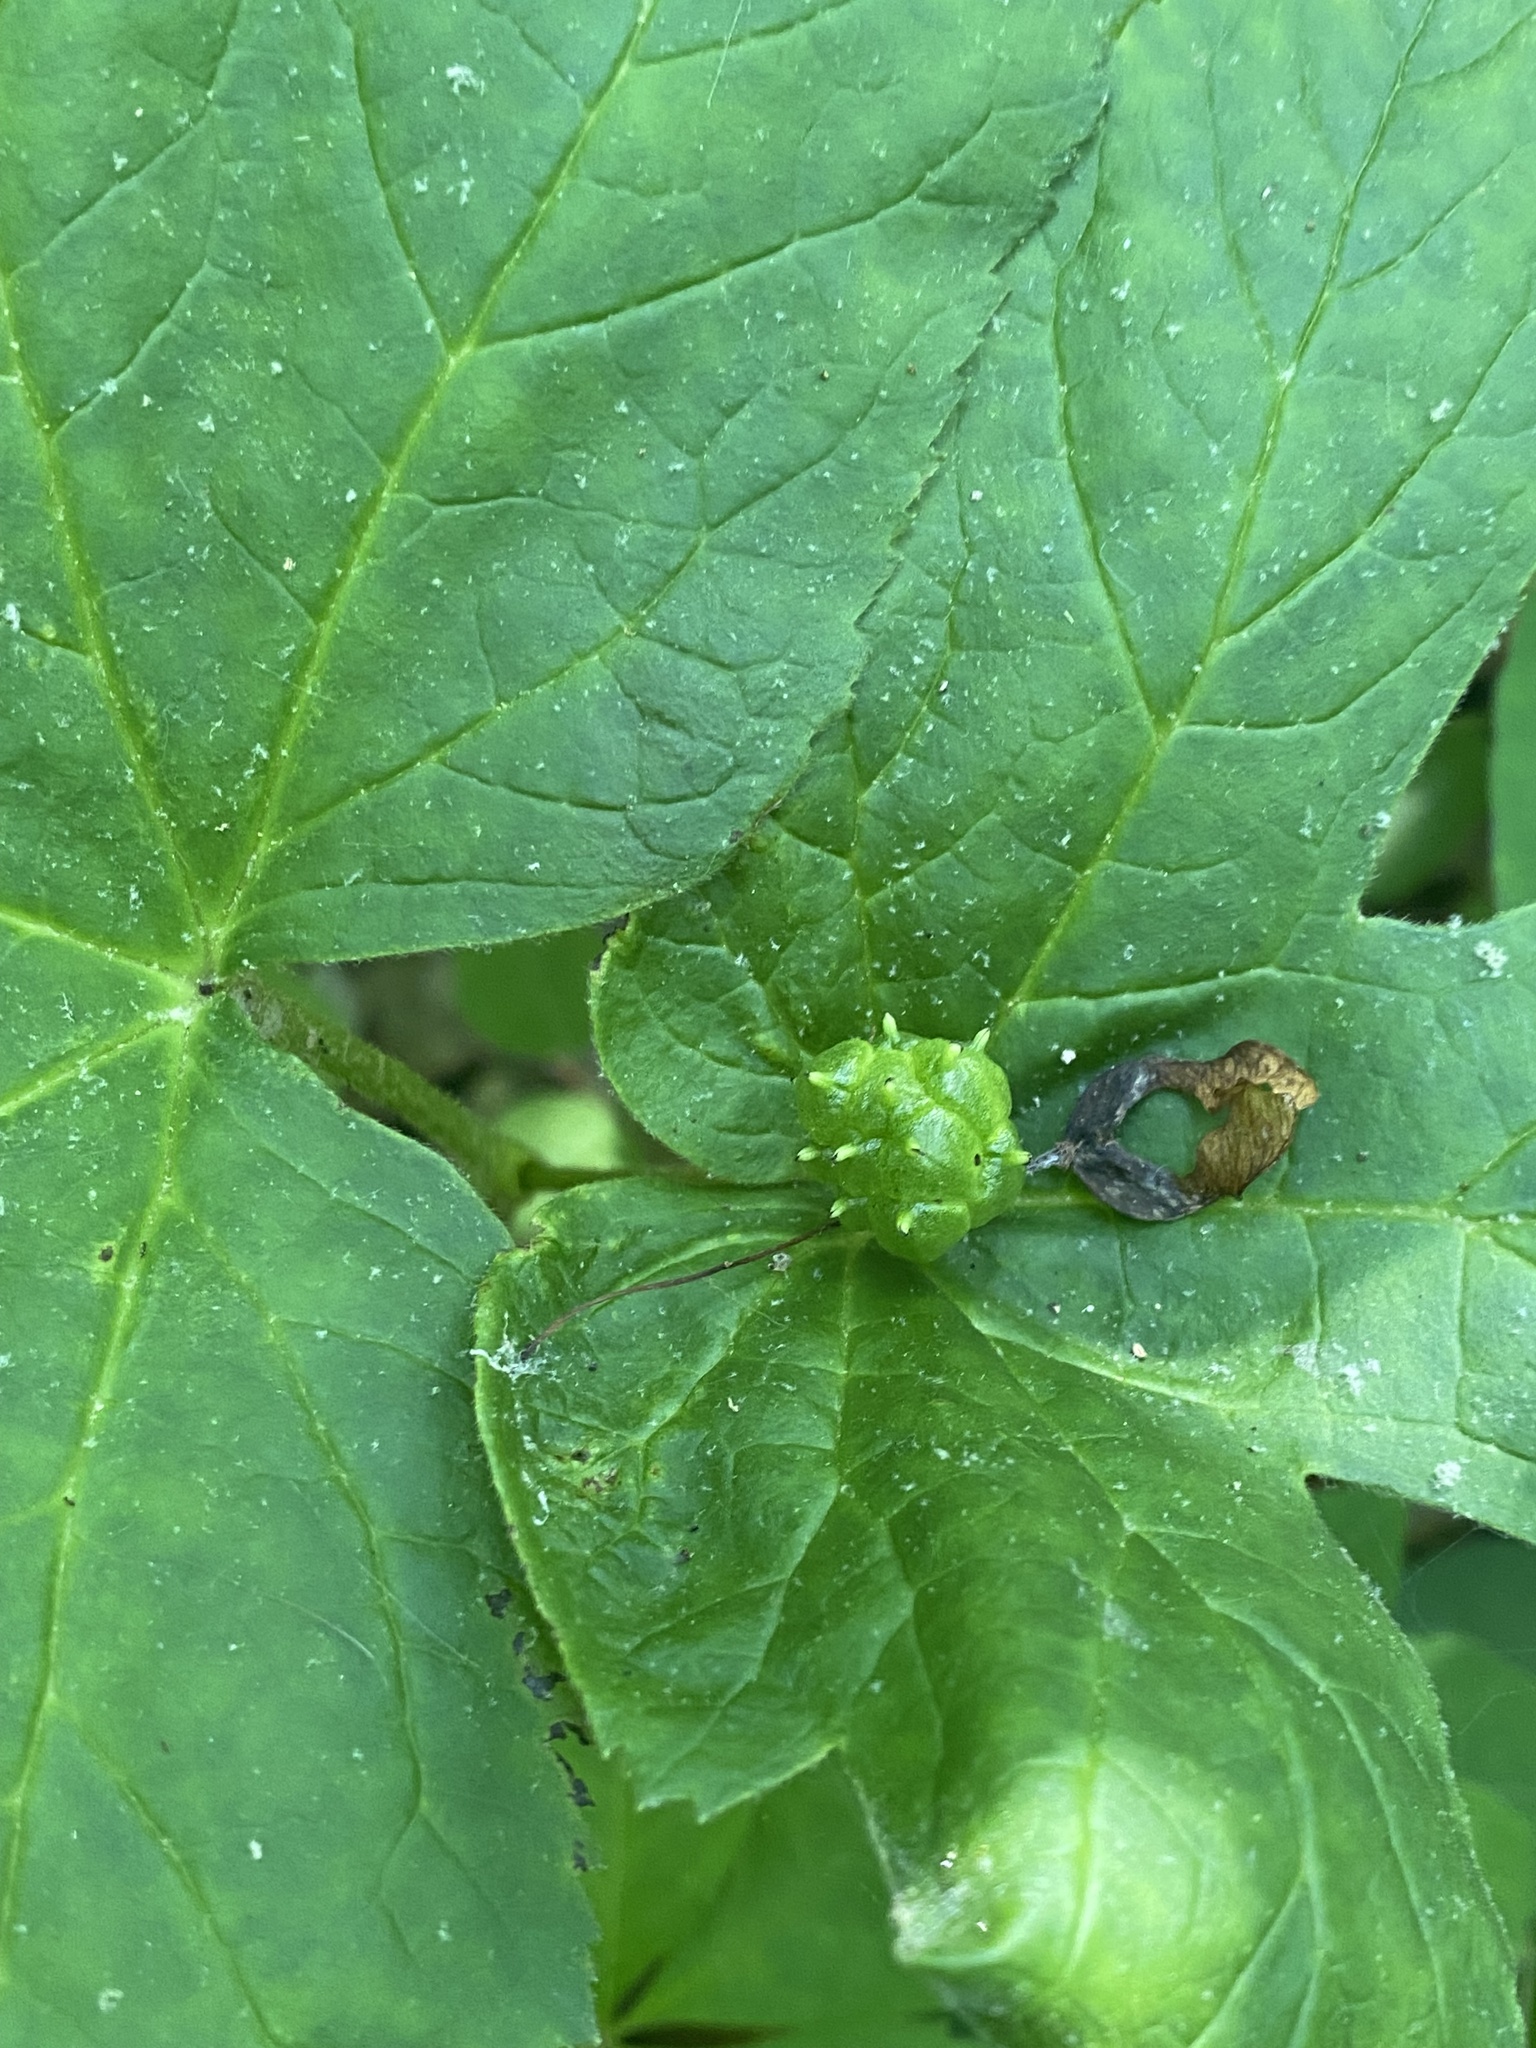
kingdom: Plantae
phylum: Tracheophyta
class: Magnoliopsida
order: Ranunculales
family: Ranunculaceae
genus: Hydrastis
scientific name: Hydrastis canadensis
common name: Goldenseal
